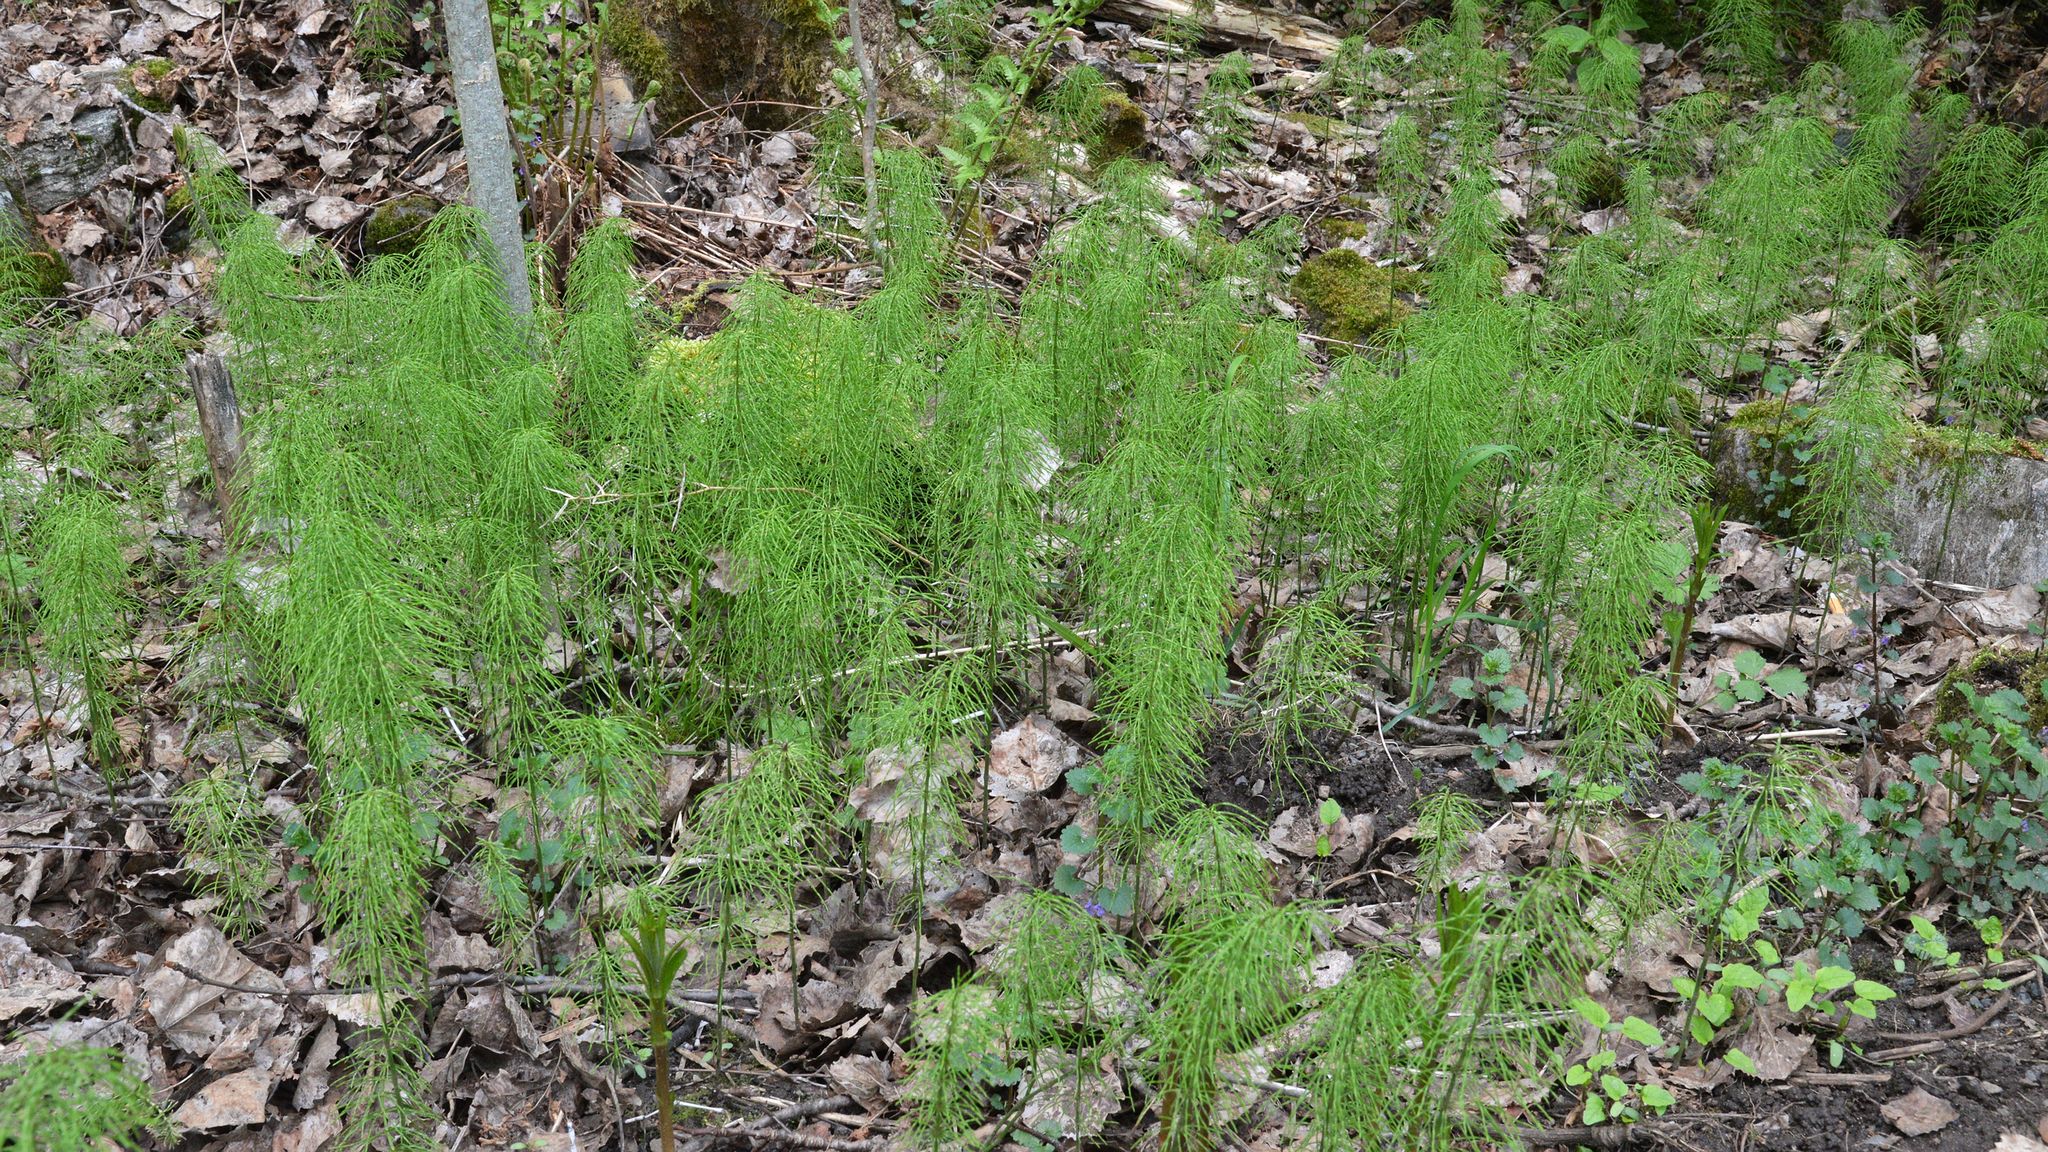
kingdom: Plantae
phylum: Tracheophyta
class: Polypodiopsida
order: Equisetales
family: Equisetaceae
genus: Equisetum
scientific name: Equisetum pratense
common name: Meadow horsetail
